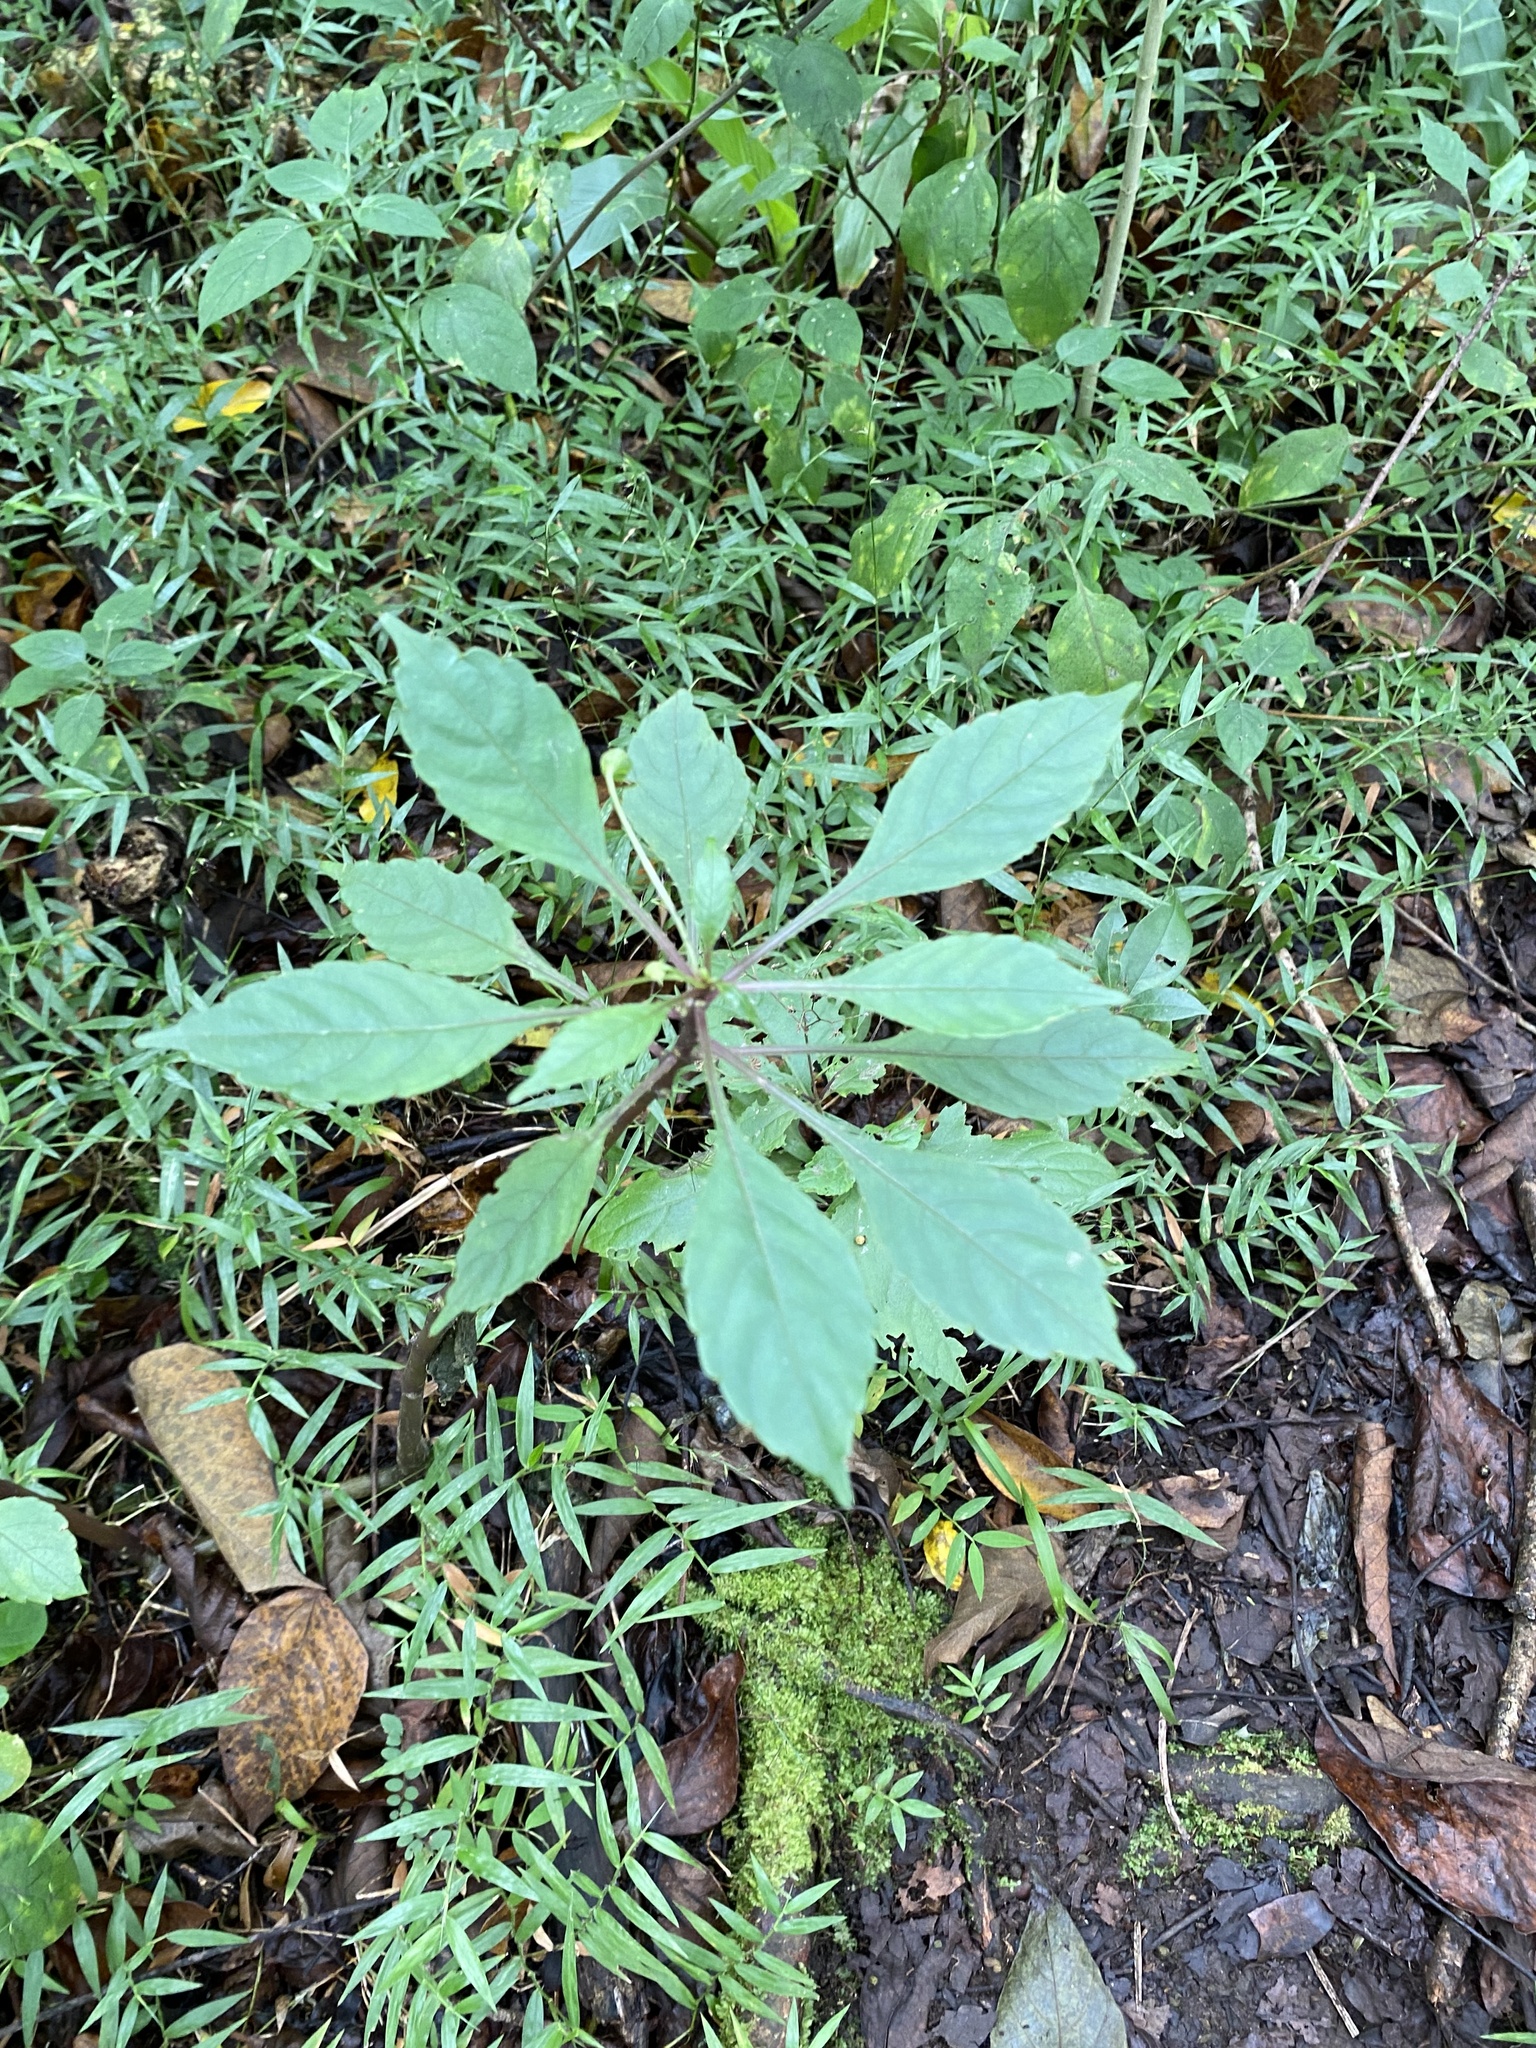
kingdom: Plantae
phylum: Tracheophyta
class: Magnoliopsida
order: Ericales
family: Balsaminaceae
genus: Impatiens
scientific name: Impatiens hochstetteri
